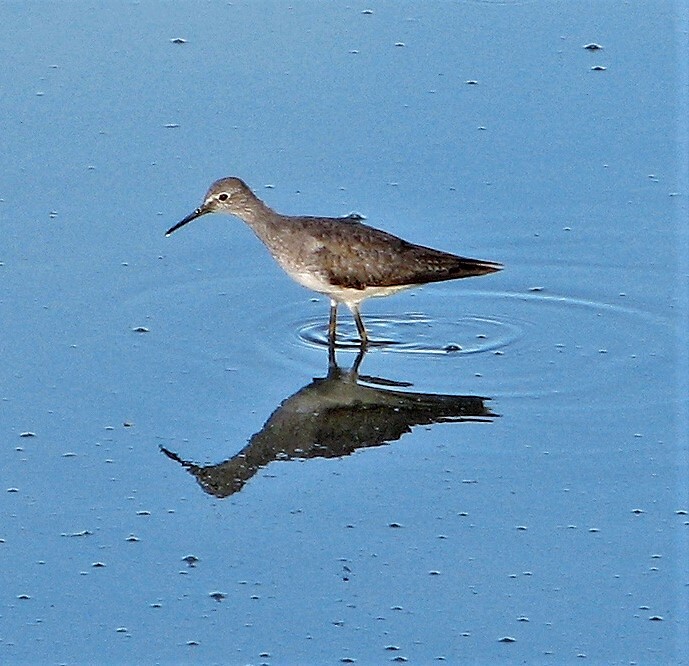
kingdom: Animalia
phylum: Chordata
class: Aves
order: Charadriiformes
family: Scolopacidae
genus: Tringa
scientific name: Tringa flavipes
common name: Lesser yellowlegs
